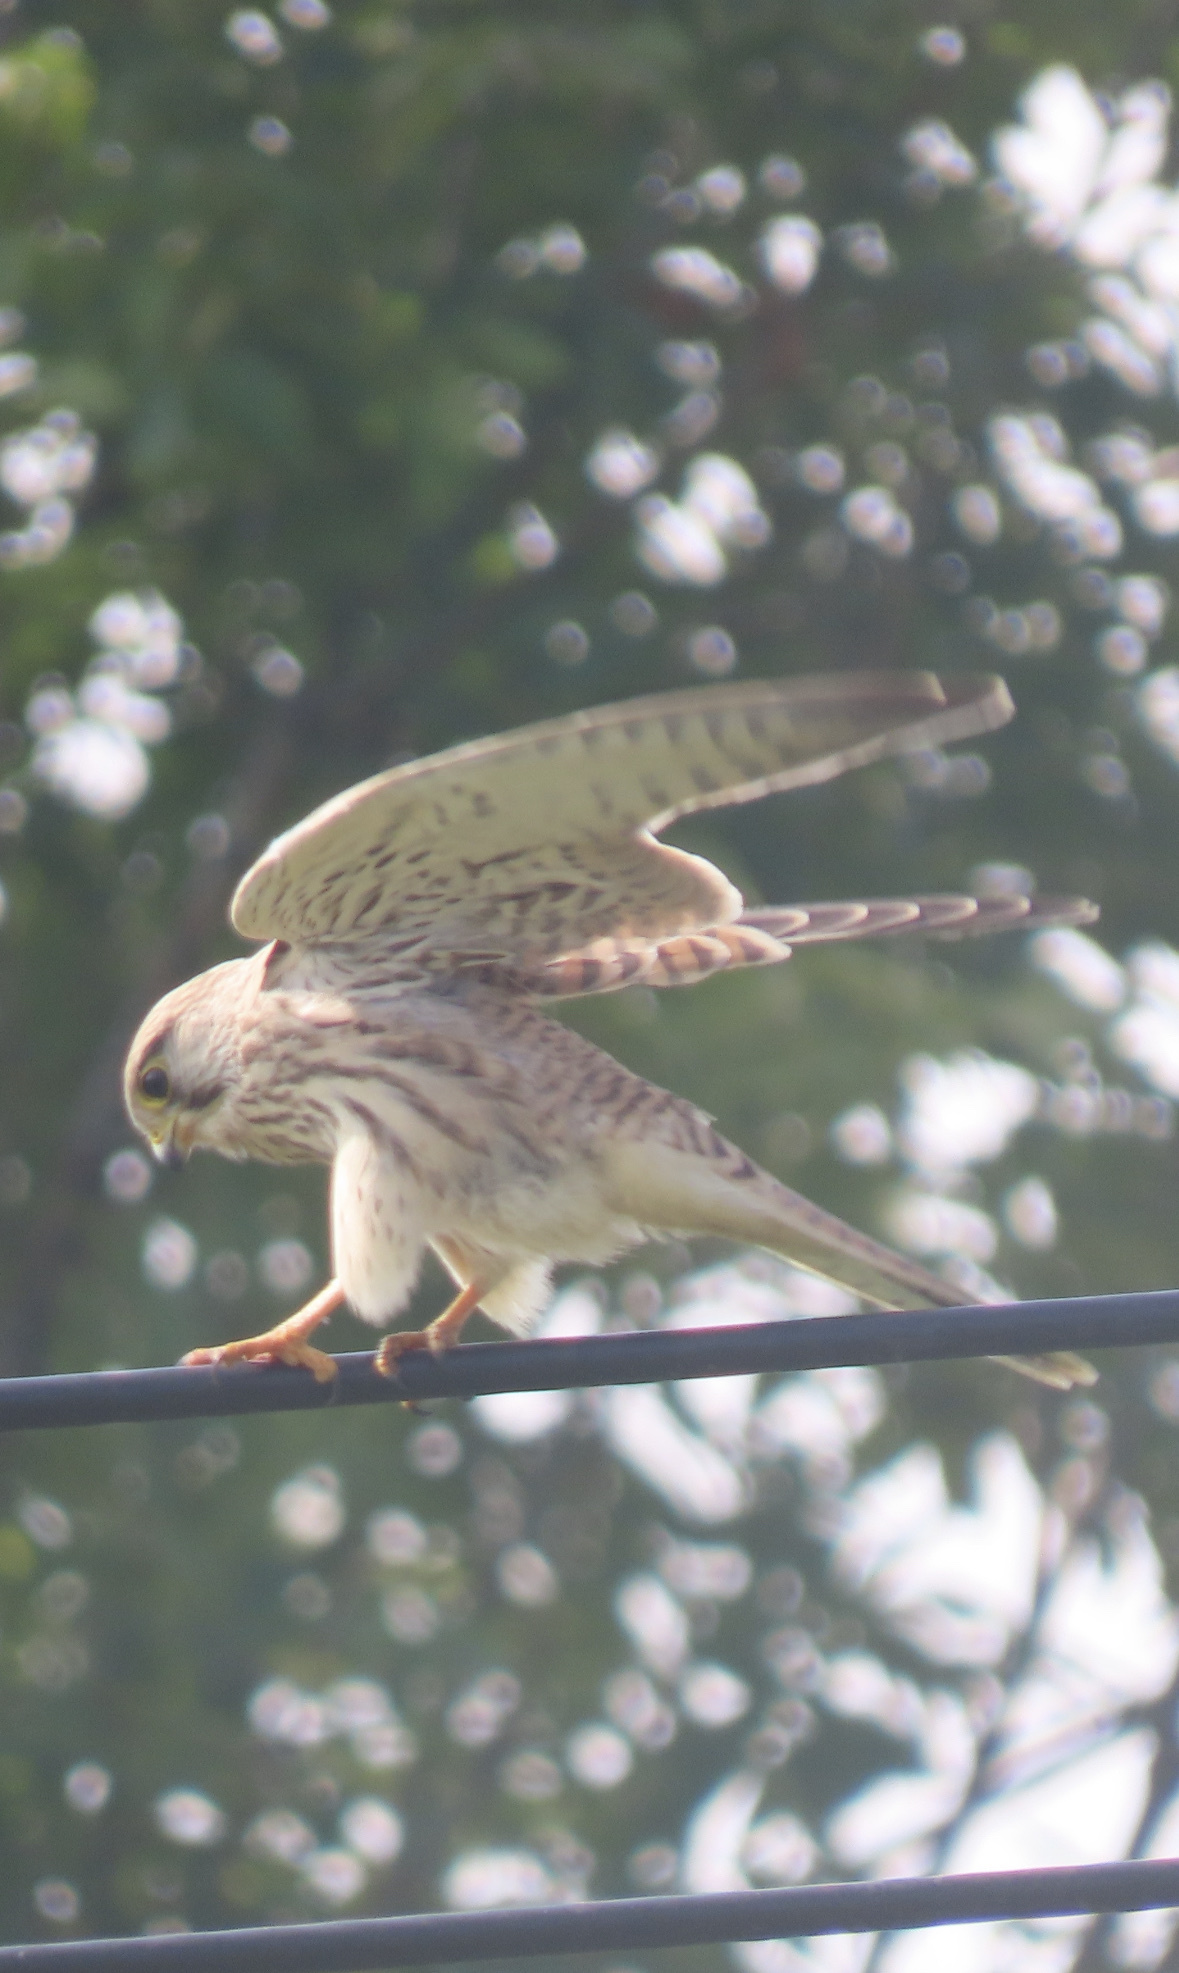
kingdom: Animalia
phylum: Chordata
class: Aves
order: Falconiformes
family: Falconidae
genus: Falco
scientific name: Falco tinnunculus
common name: Common kestrel
